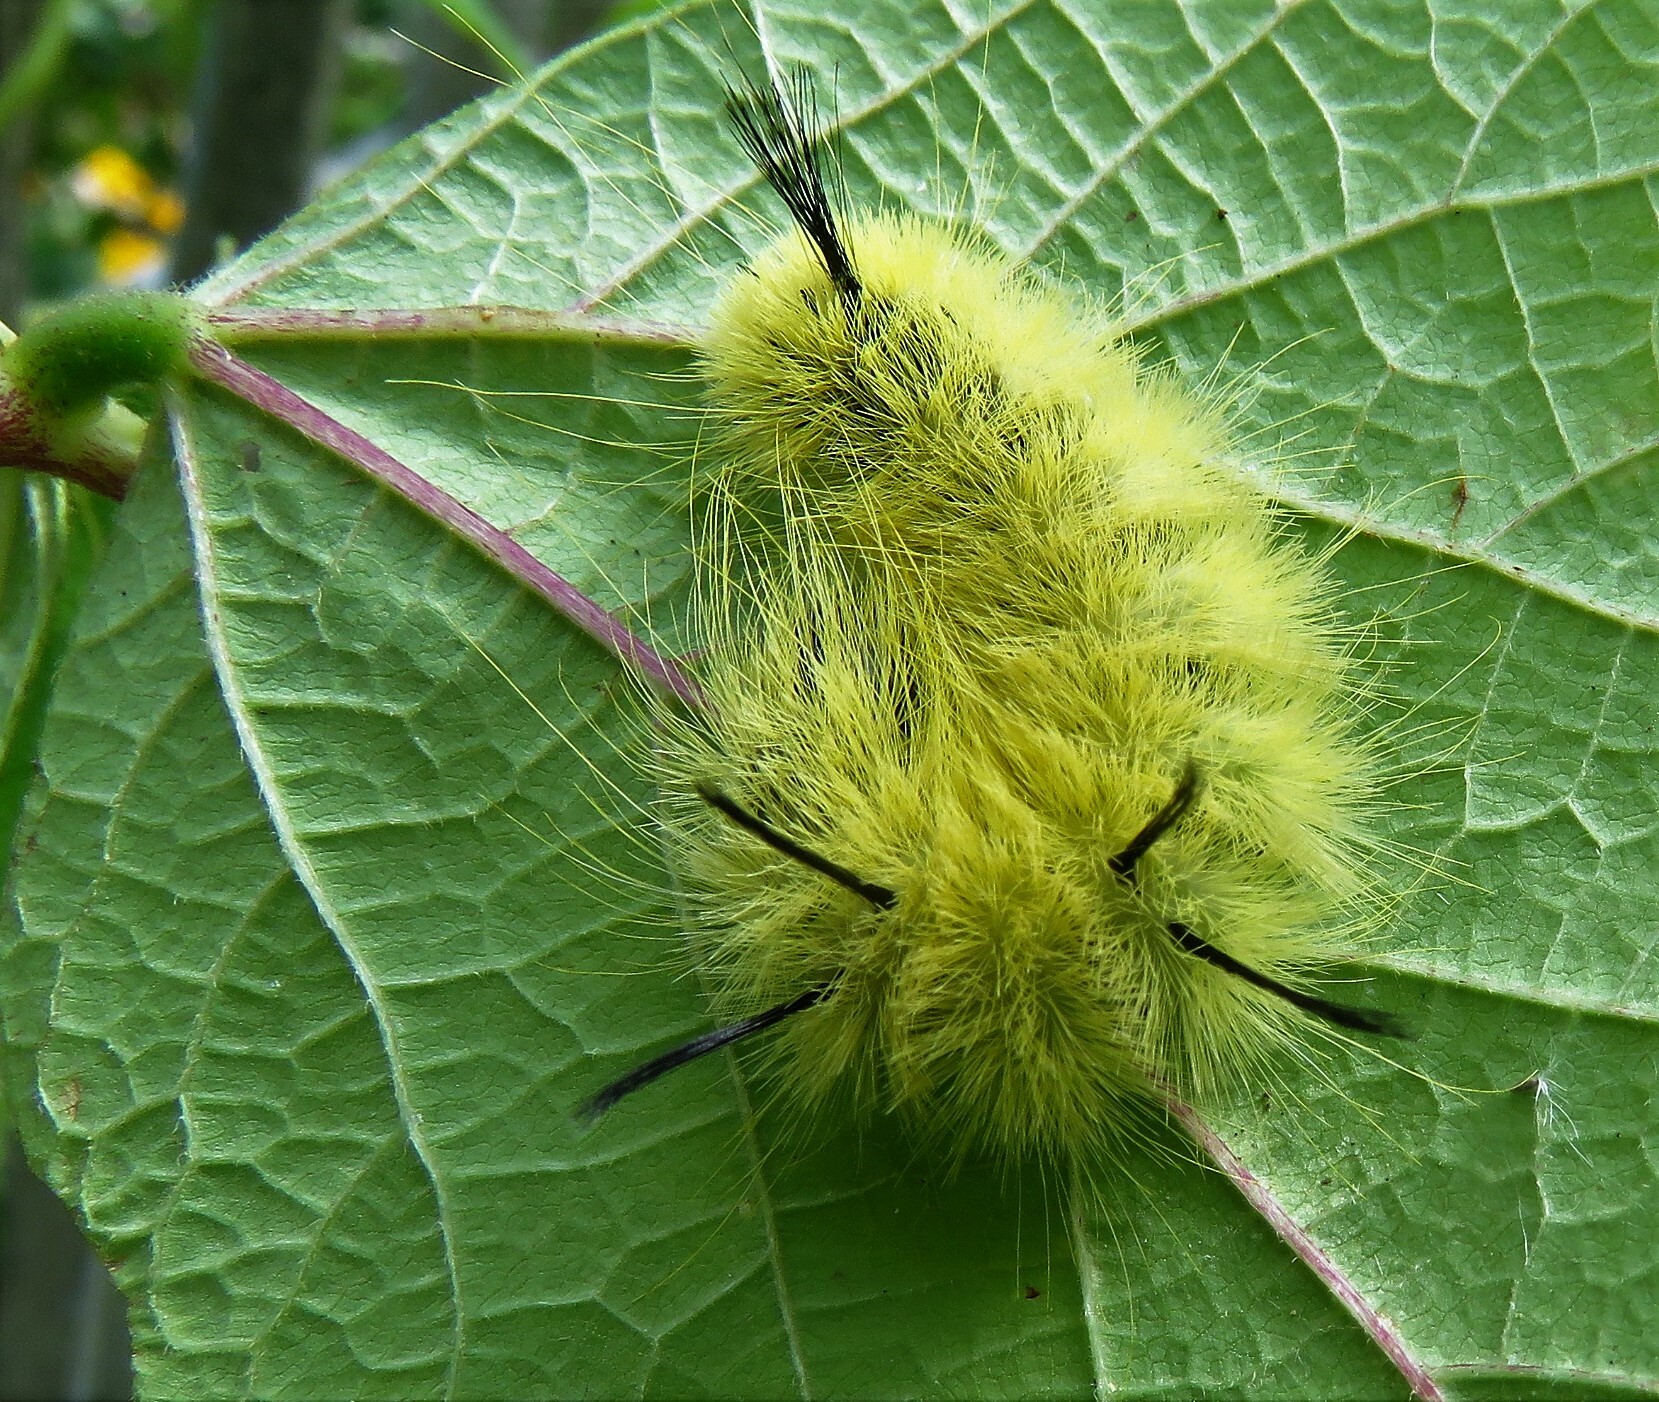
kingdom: Animalia
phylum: Arthropoda
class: Insecta
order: Lepidoptera
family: Erebidae
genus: Halysidota
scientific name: Halysidota tessellaris
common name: Banded tussock moth
